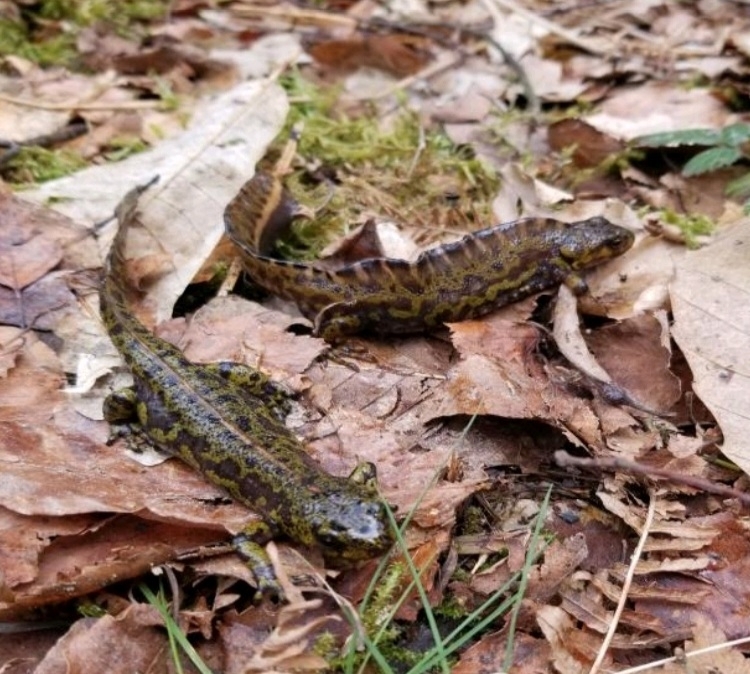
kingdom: Animalia
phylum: Chordata
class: Amphibia
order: Caudata
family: Salamandridae
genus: Triturus
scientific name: Triturus marmoratus
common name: Marbled newt
